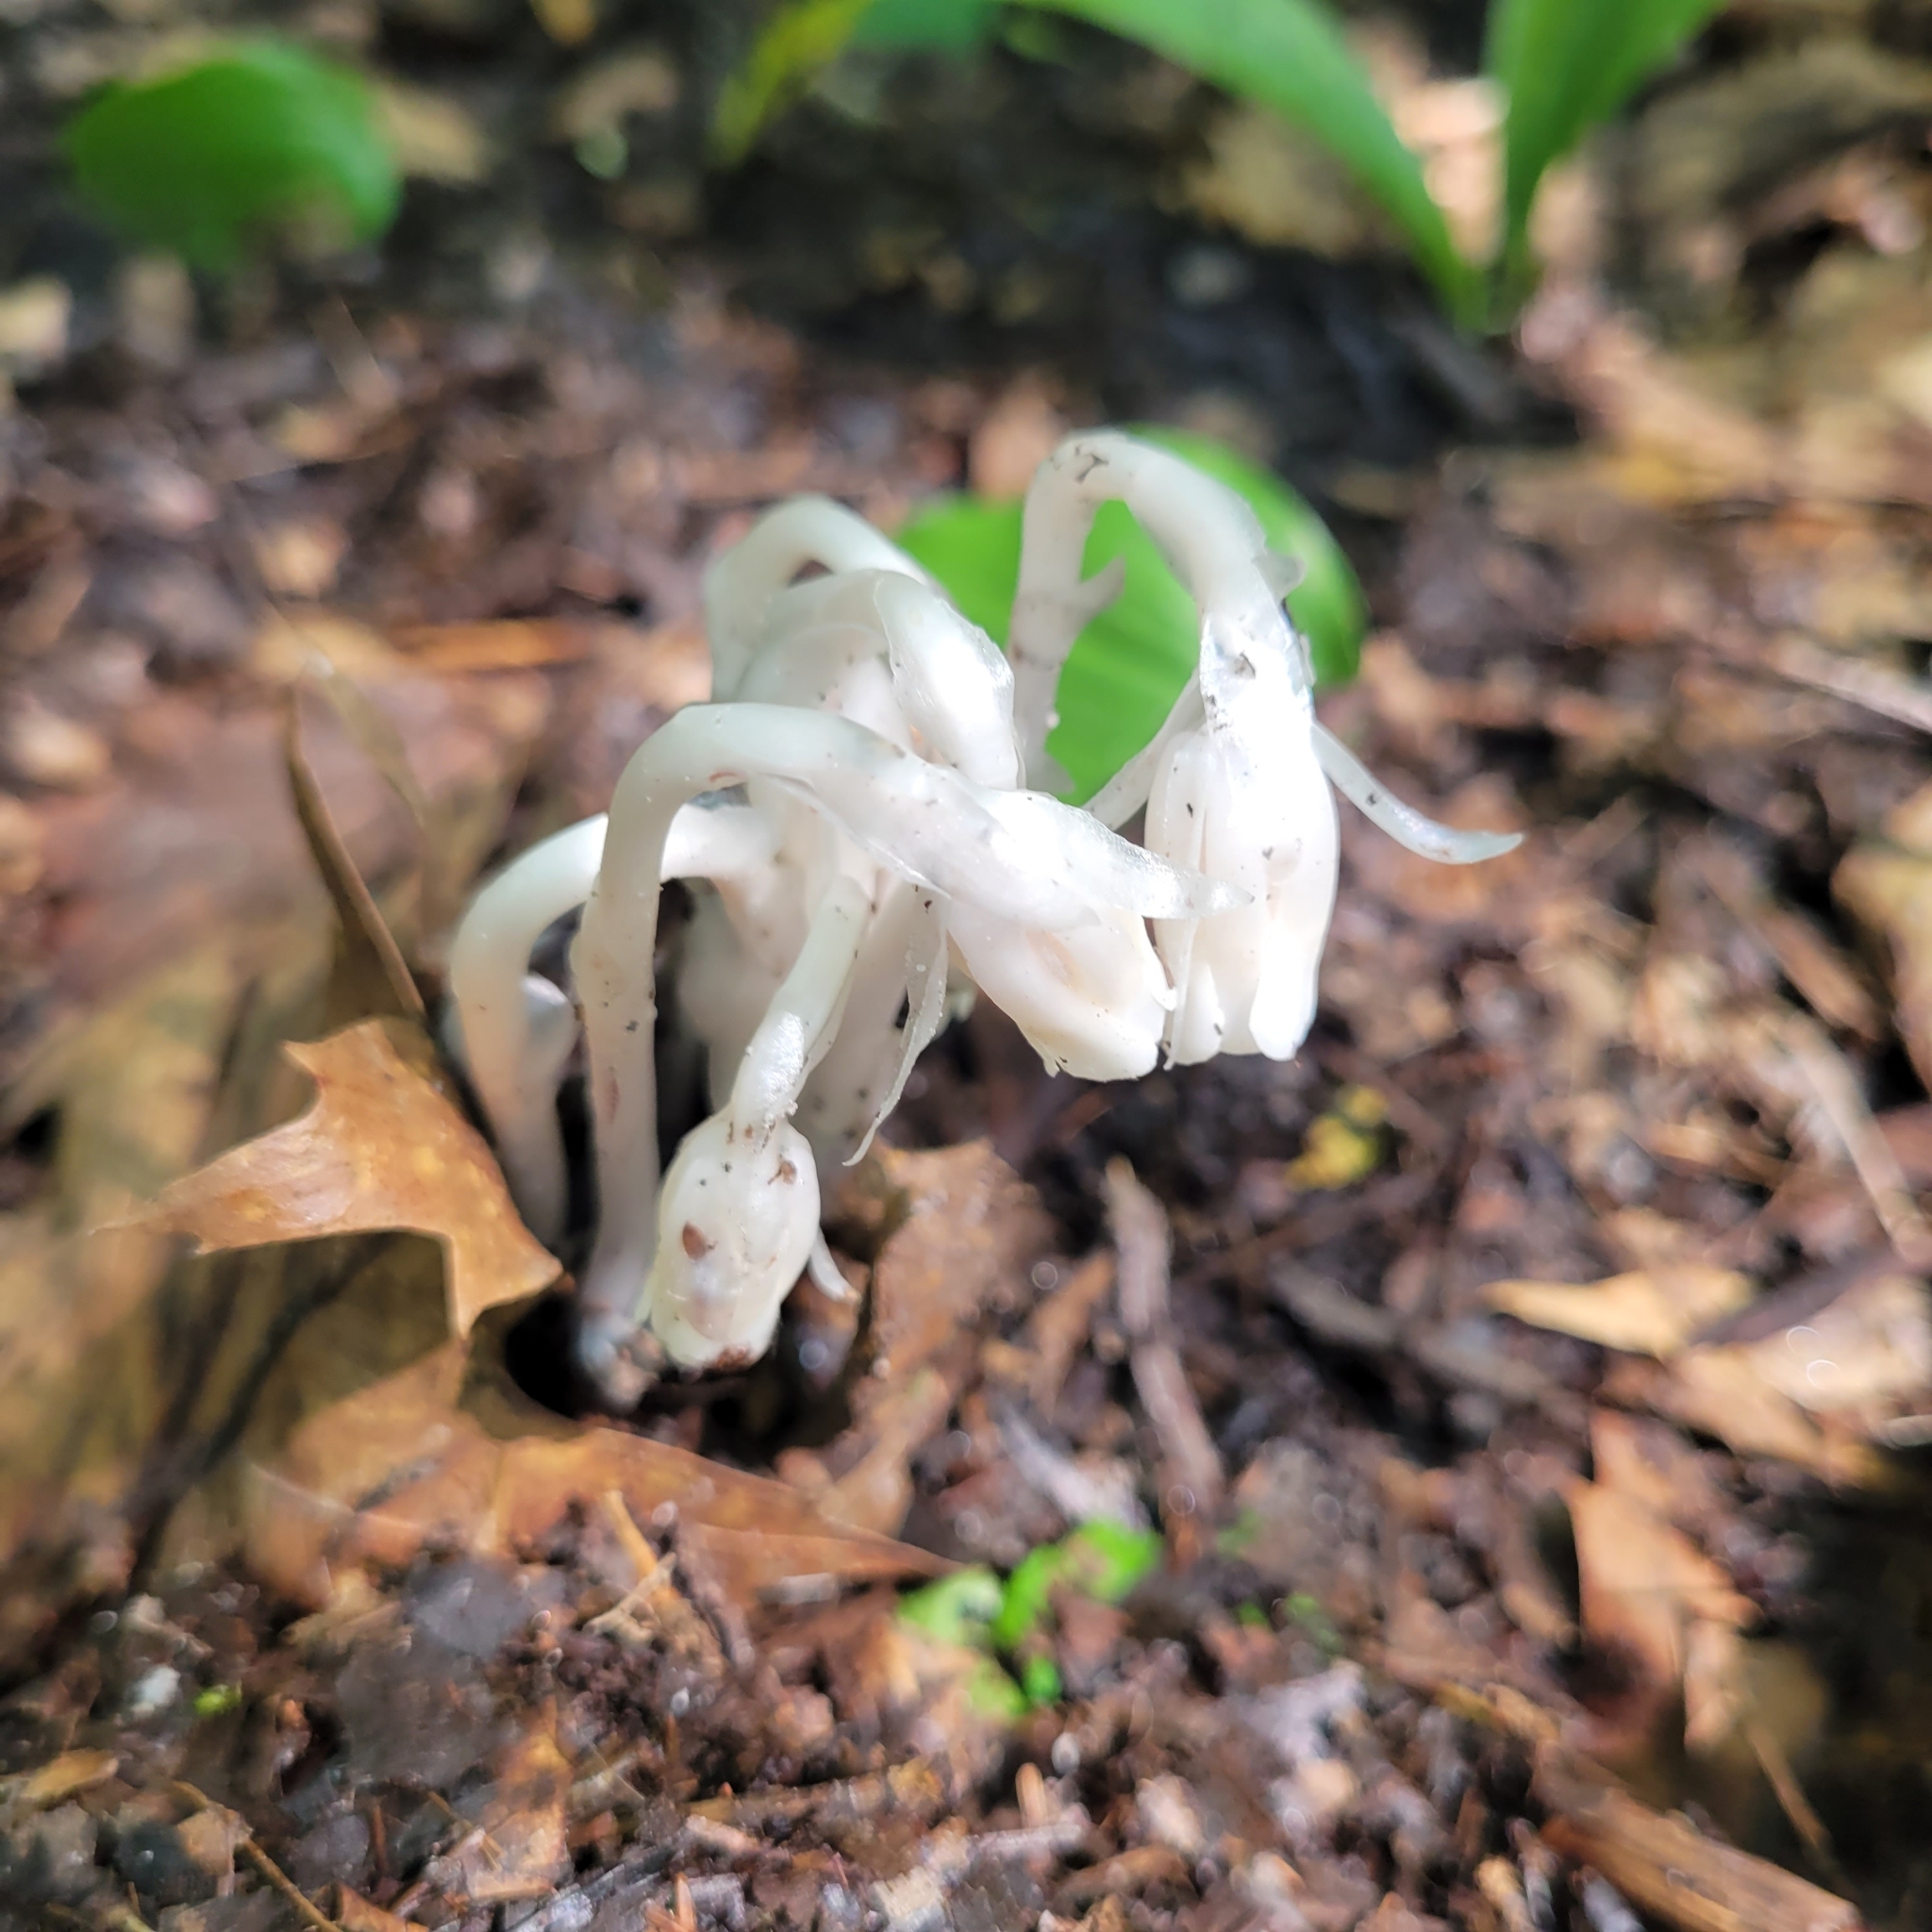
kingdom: Plantae
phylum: Tracheophyta
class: Magnoliopsida
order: Ericales
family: Ericaceae
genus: Monotropa
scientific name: Monotropa uniflora
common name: Convulsion root
